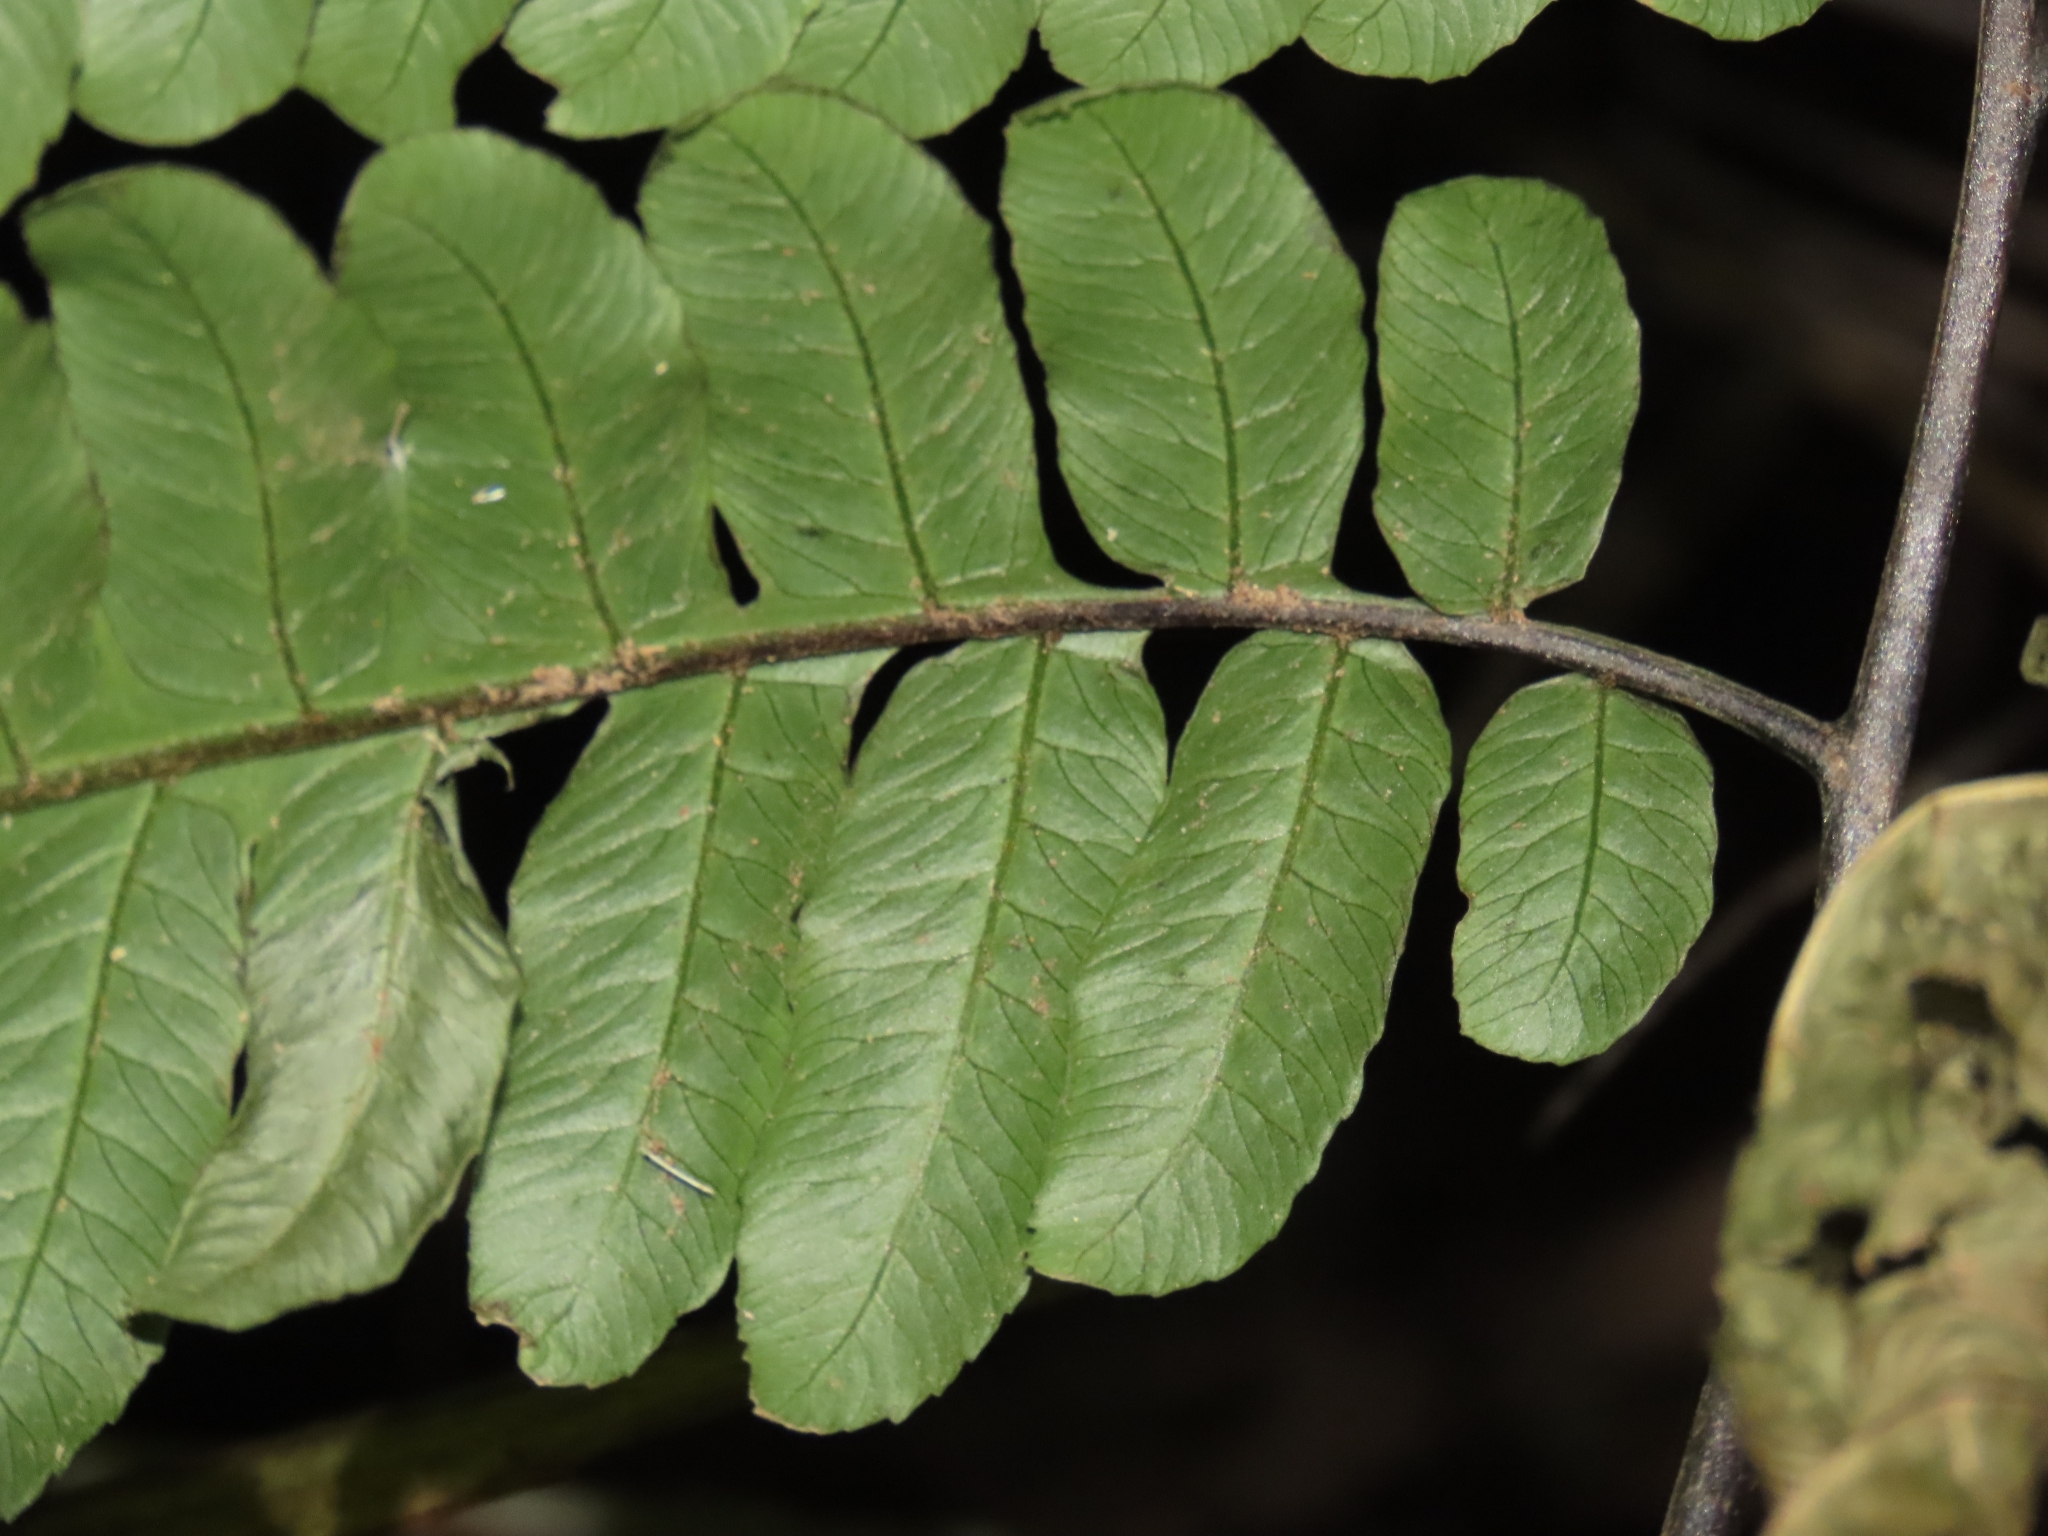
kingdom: Plantae
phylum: Tracheophyta
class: Polypodiopsida
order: Polypodiales
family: Athyriaceae
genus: Diplazium
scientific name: Diplazium dilatatum
